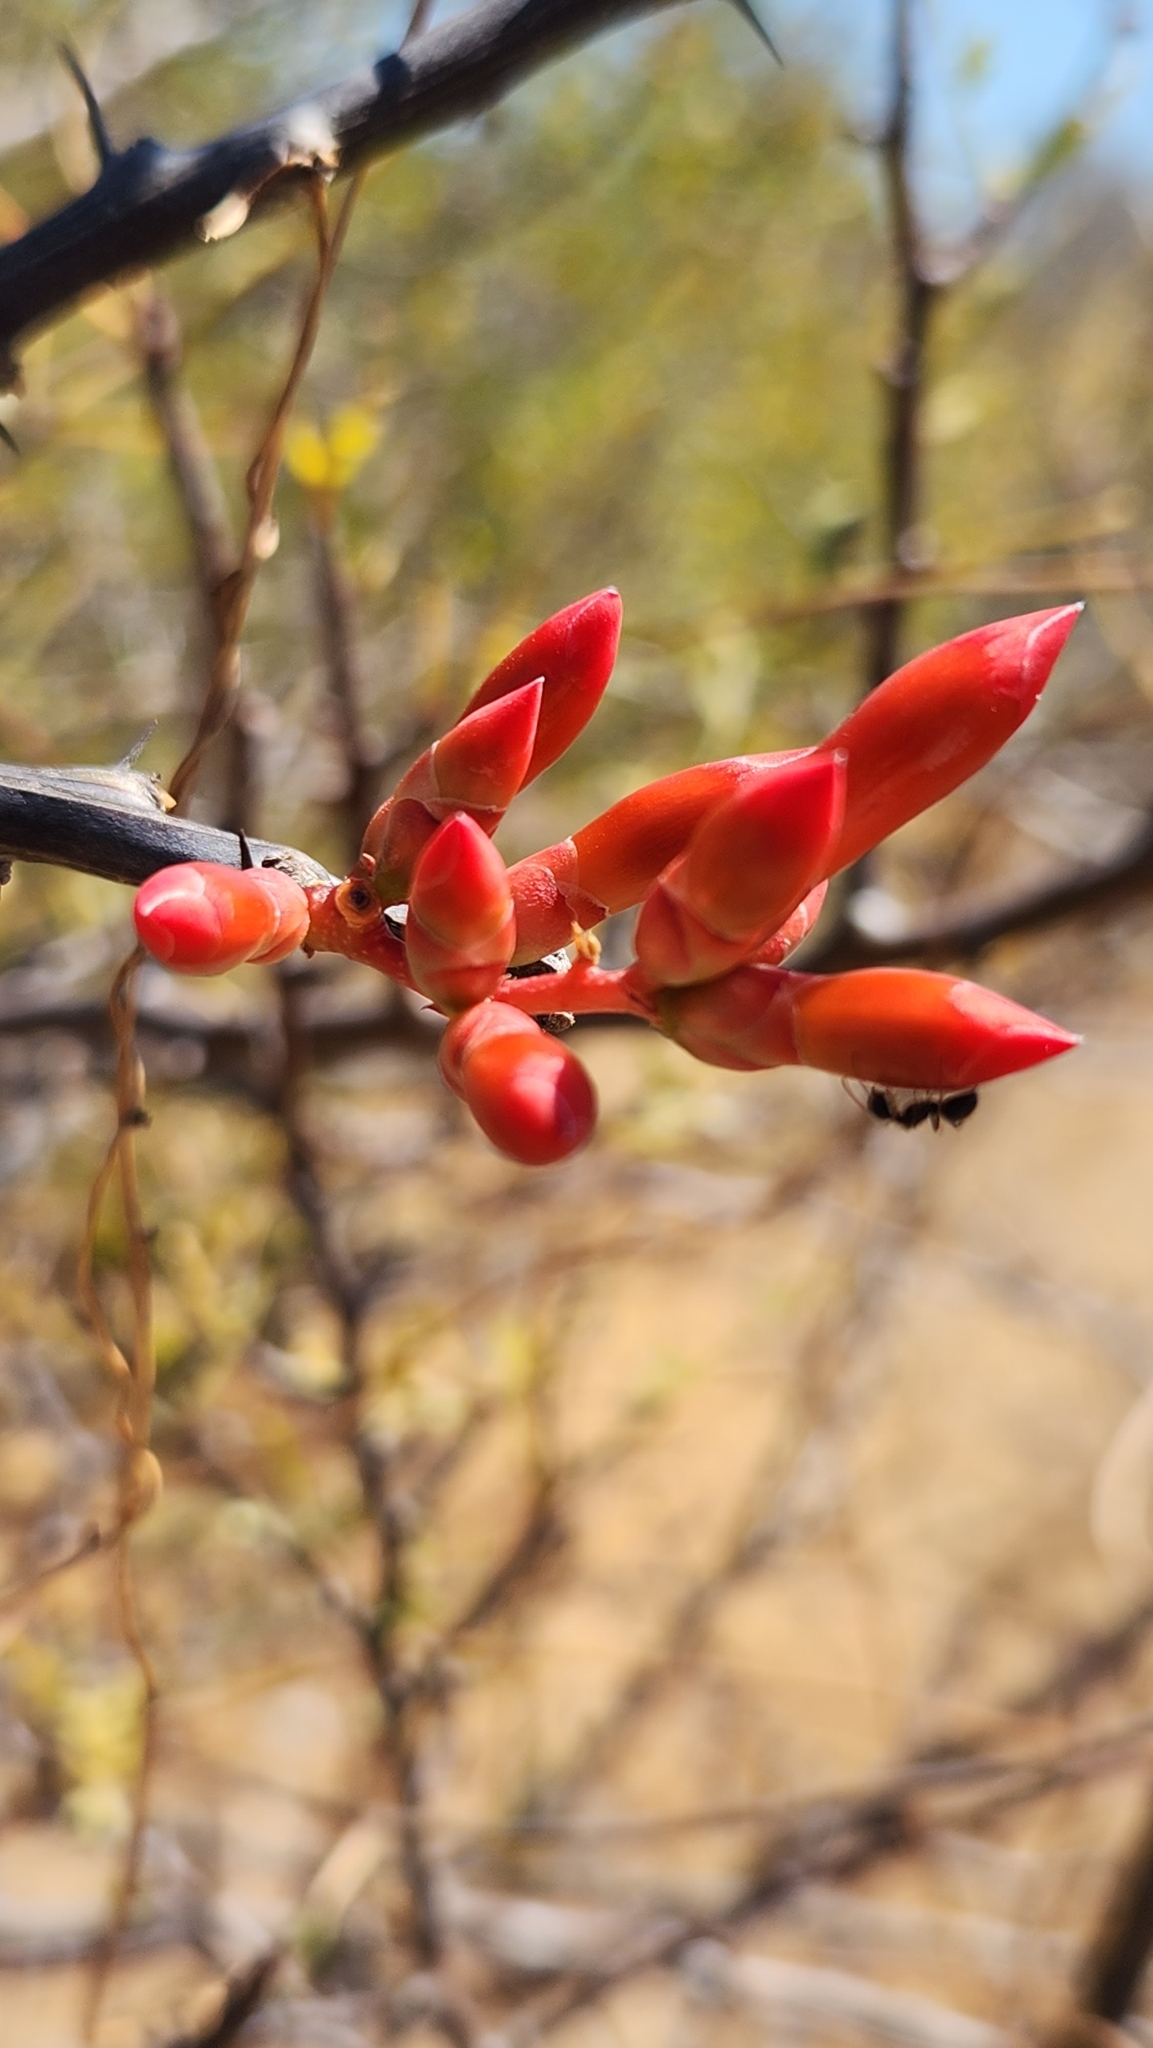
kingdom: Plantae
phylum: Tracheophyta
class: Magnoliopsida
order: Ericales
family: Fouquieriaceae
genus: Fouquieria
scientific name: Fouquieria diguetii
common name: Adam's tree
